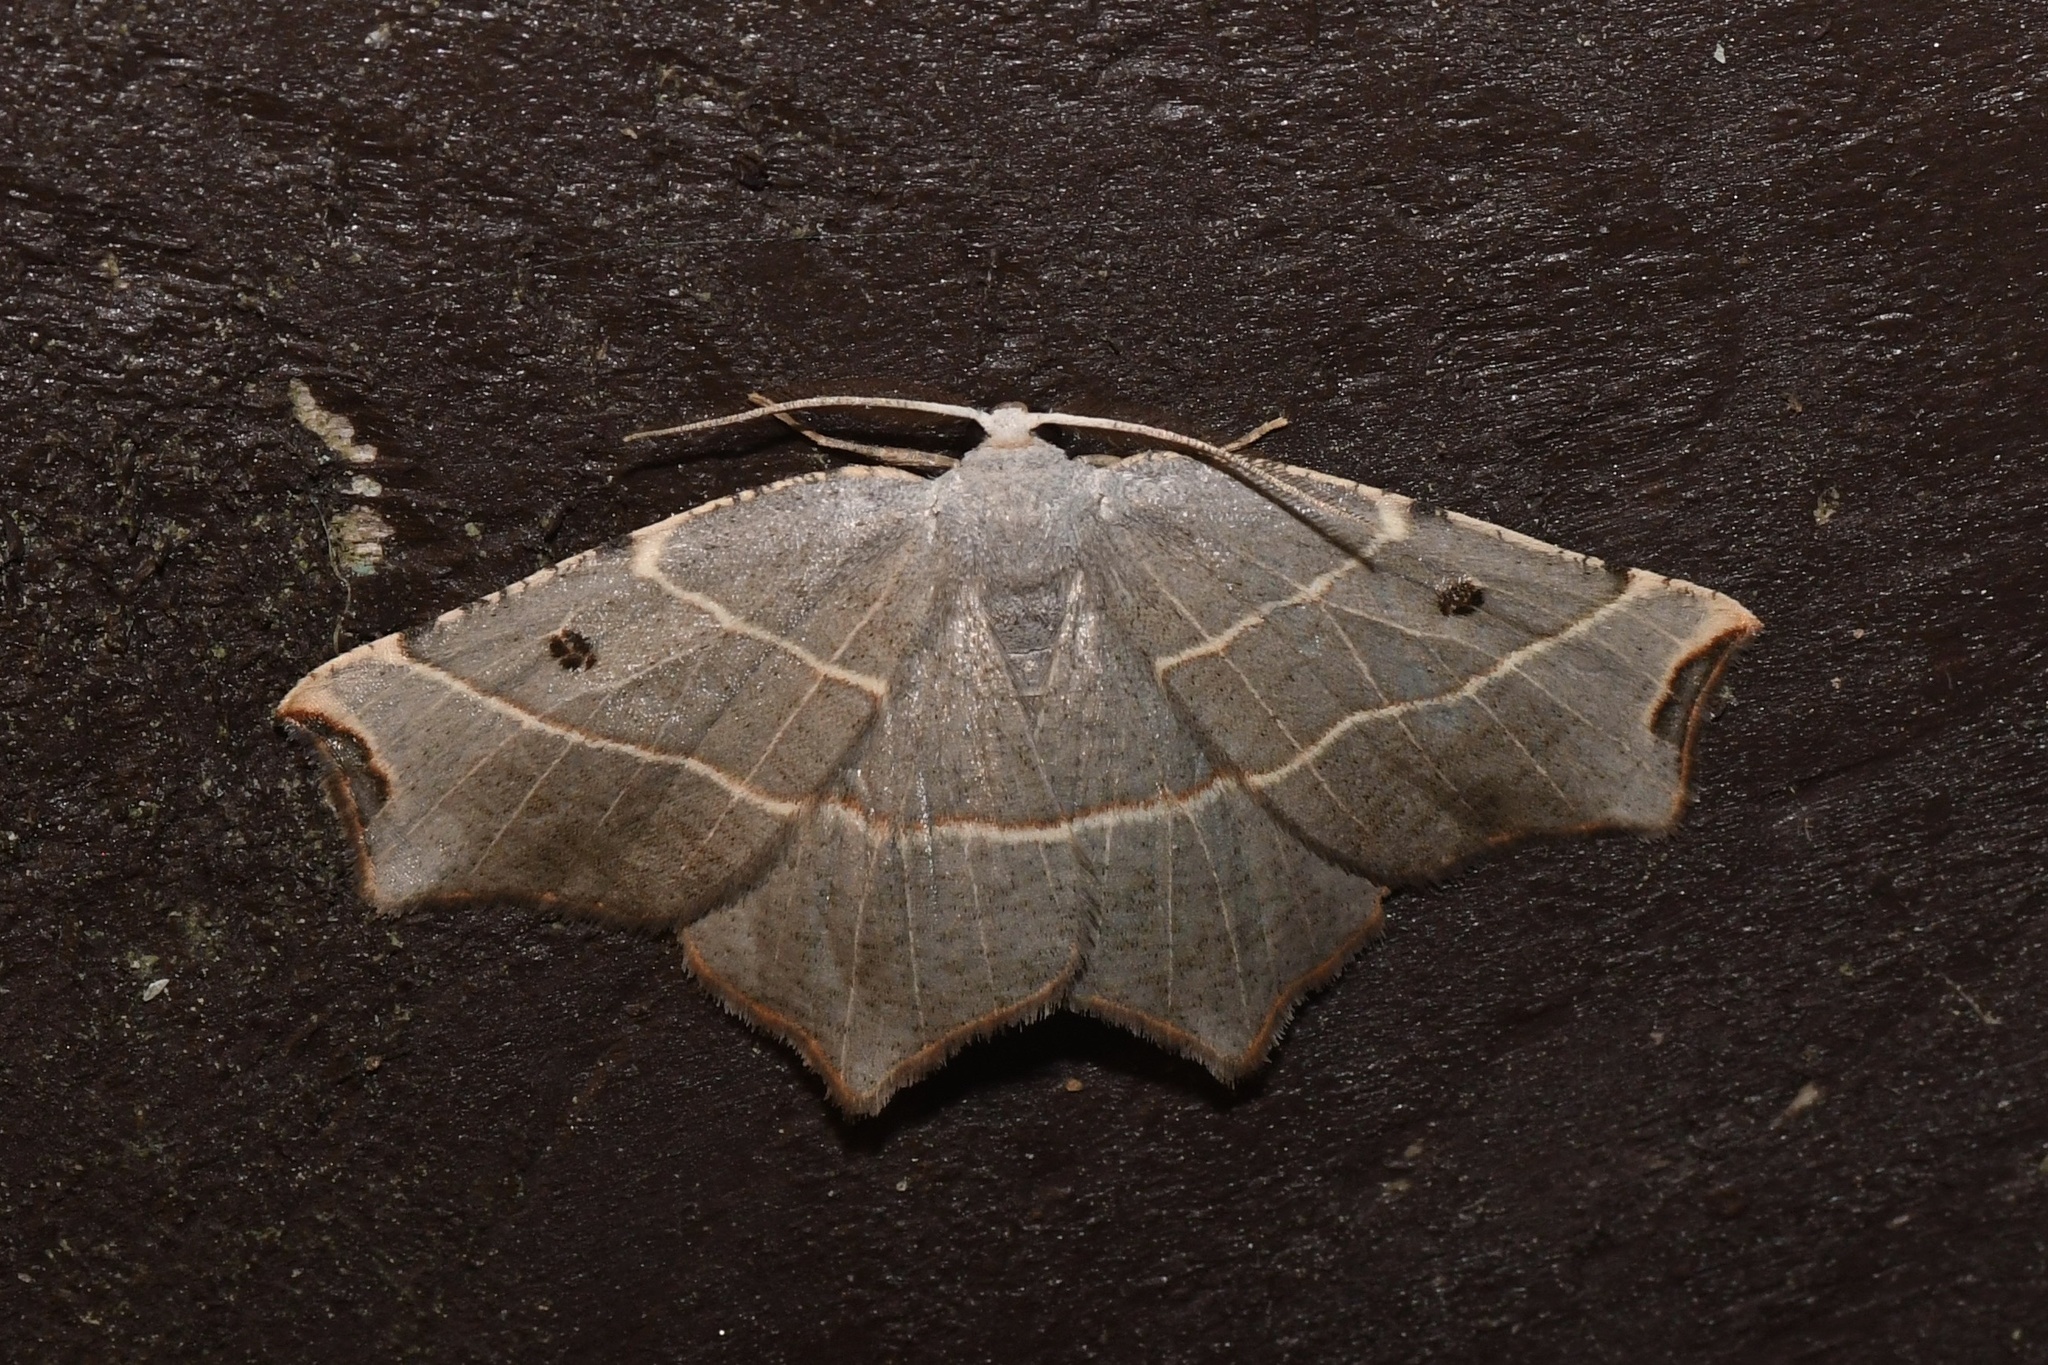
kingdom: Animalia
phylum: Arthropoda
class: Insecta
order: Lepidoptera
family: Geometridae
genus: Metanema
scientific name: Metanema inatomaria
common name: Pale metanema
